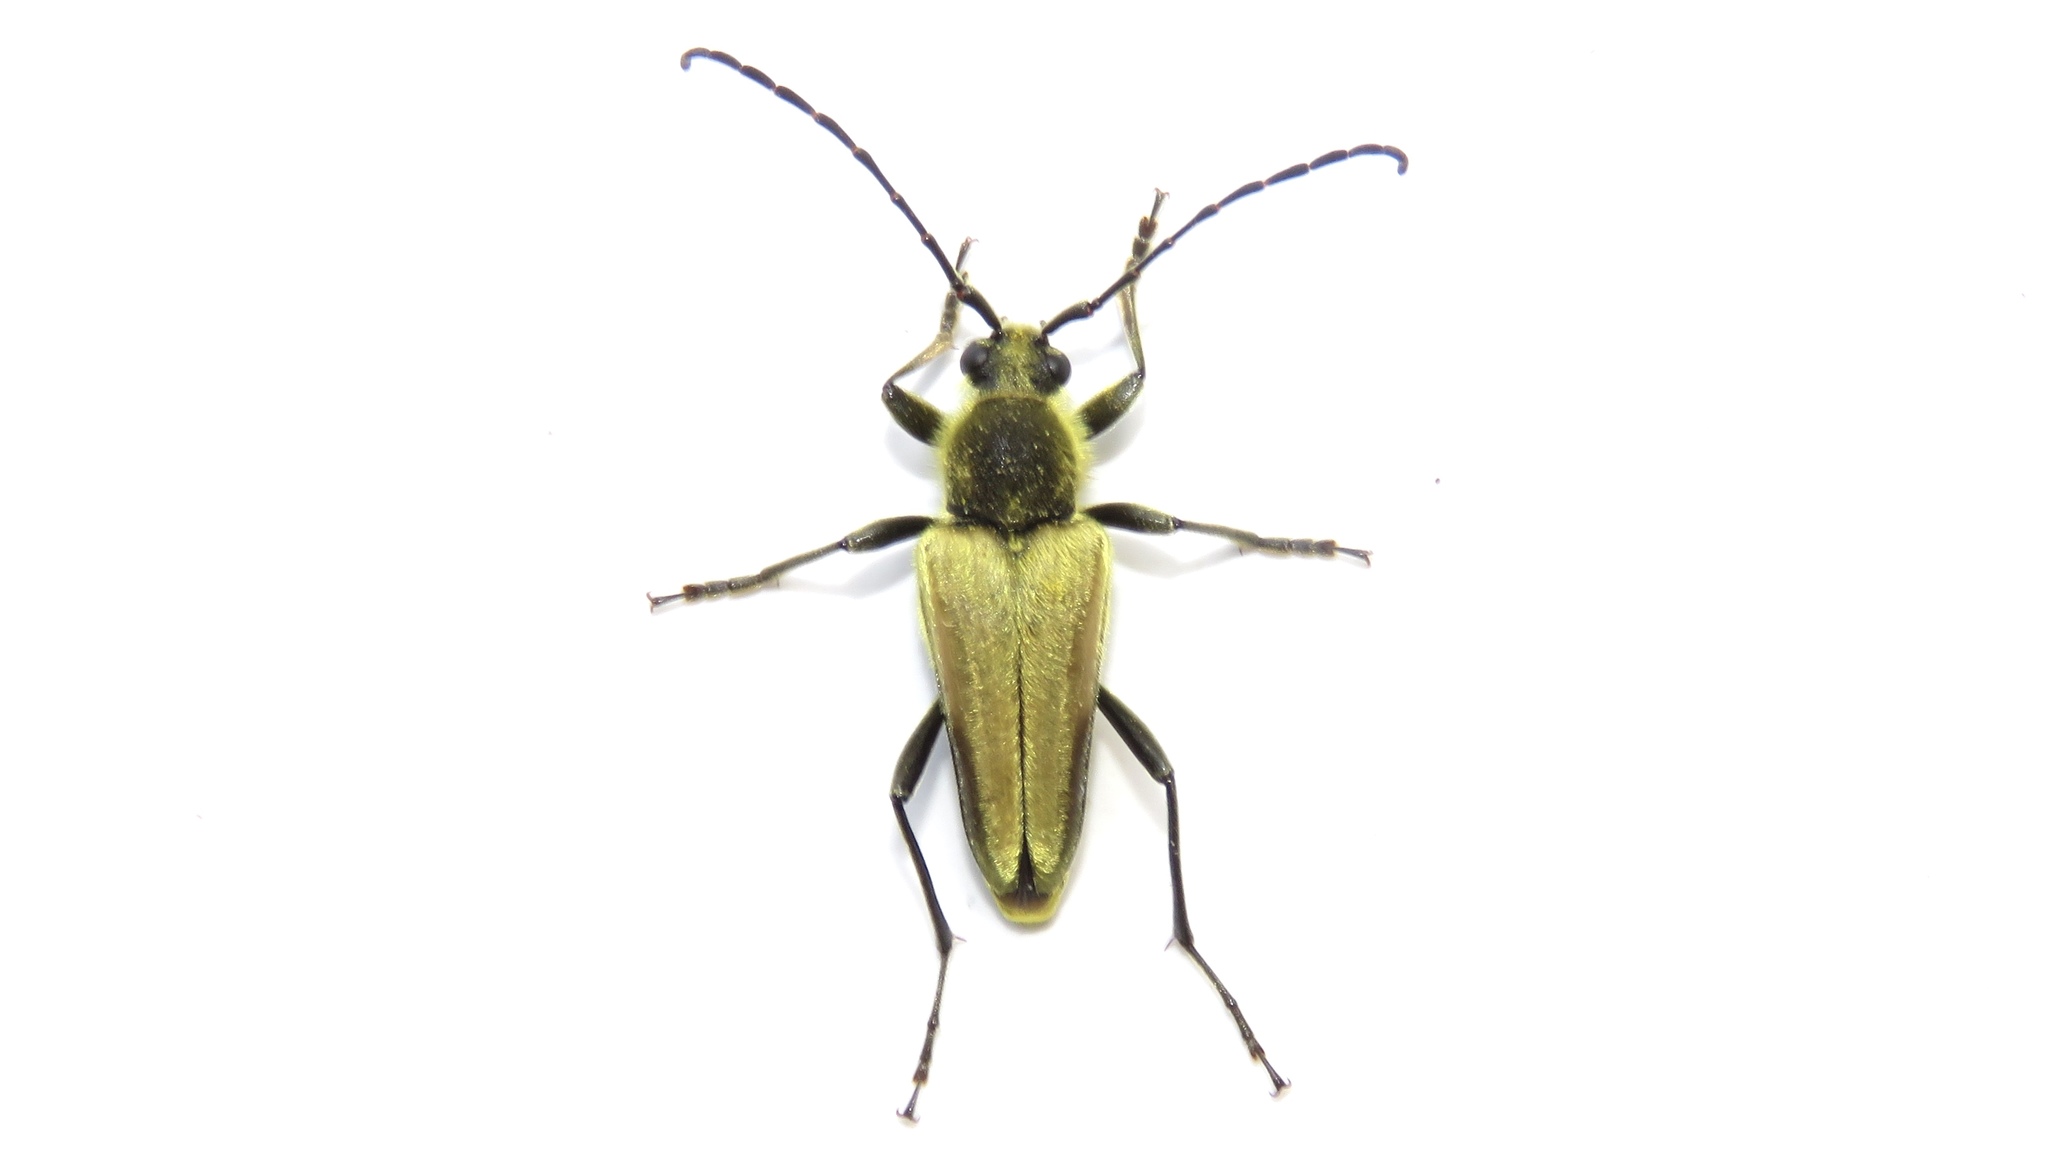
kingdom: Animalia
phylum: Arthropoda
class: Insecta
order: Coleoptera
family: Cerambycidae
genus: Cosmosalia
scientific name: Cosmosalia chrysocoma
